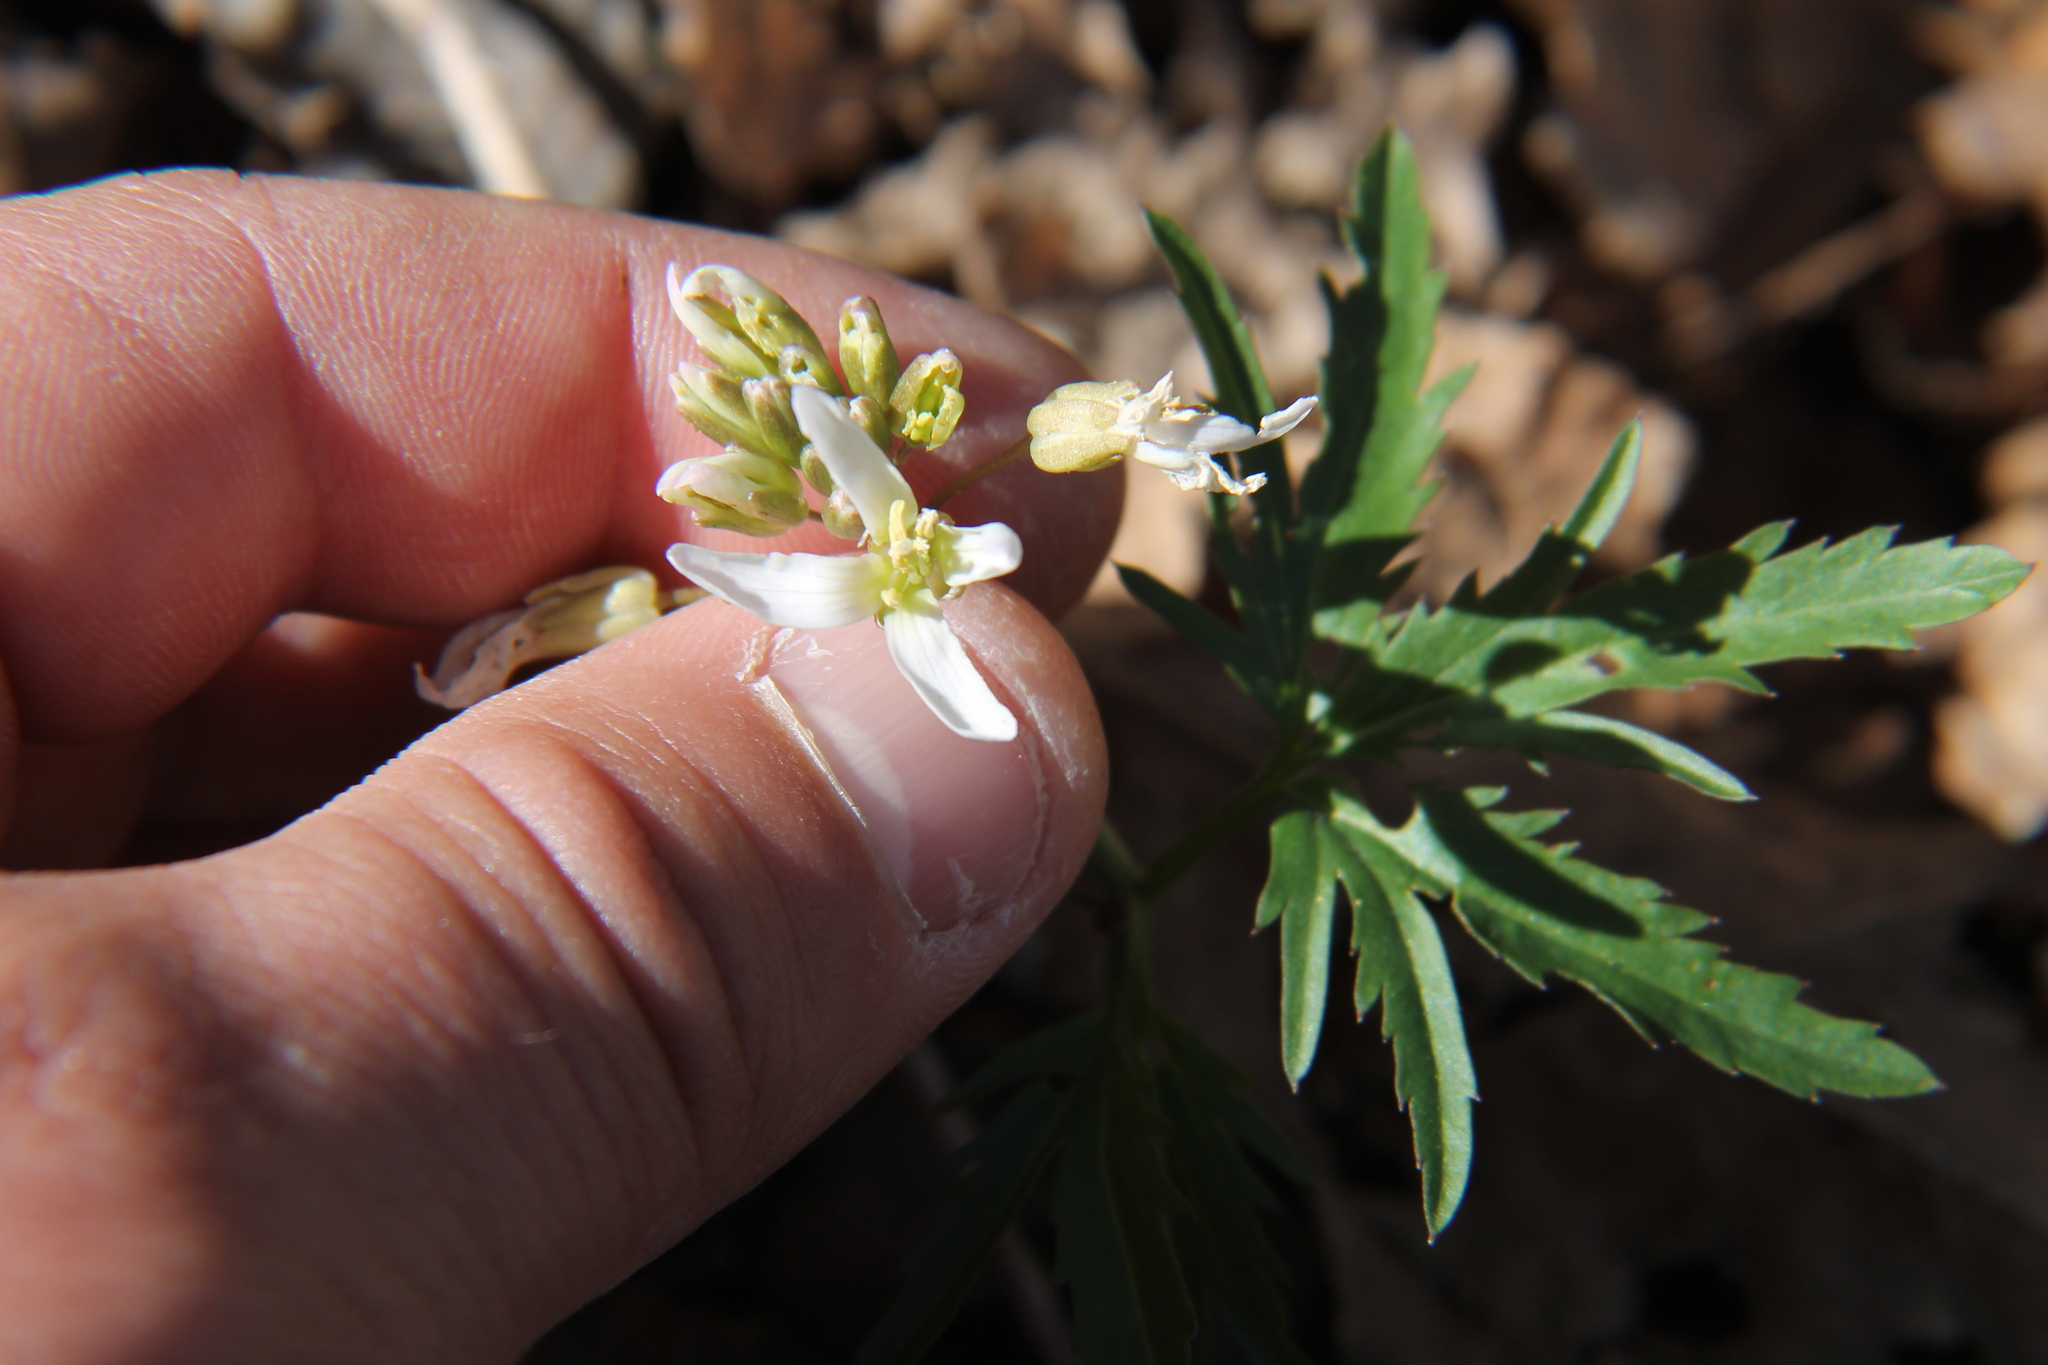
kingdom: Plantae
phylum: Tracheophyta
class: Magnoliopsida
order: Brassicales
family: Brassicaceae
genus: Cardamine
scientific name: Cardamine concatenata
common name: Cut-leaf toothcup
